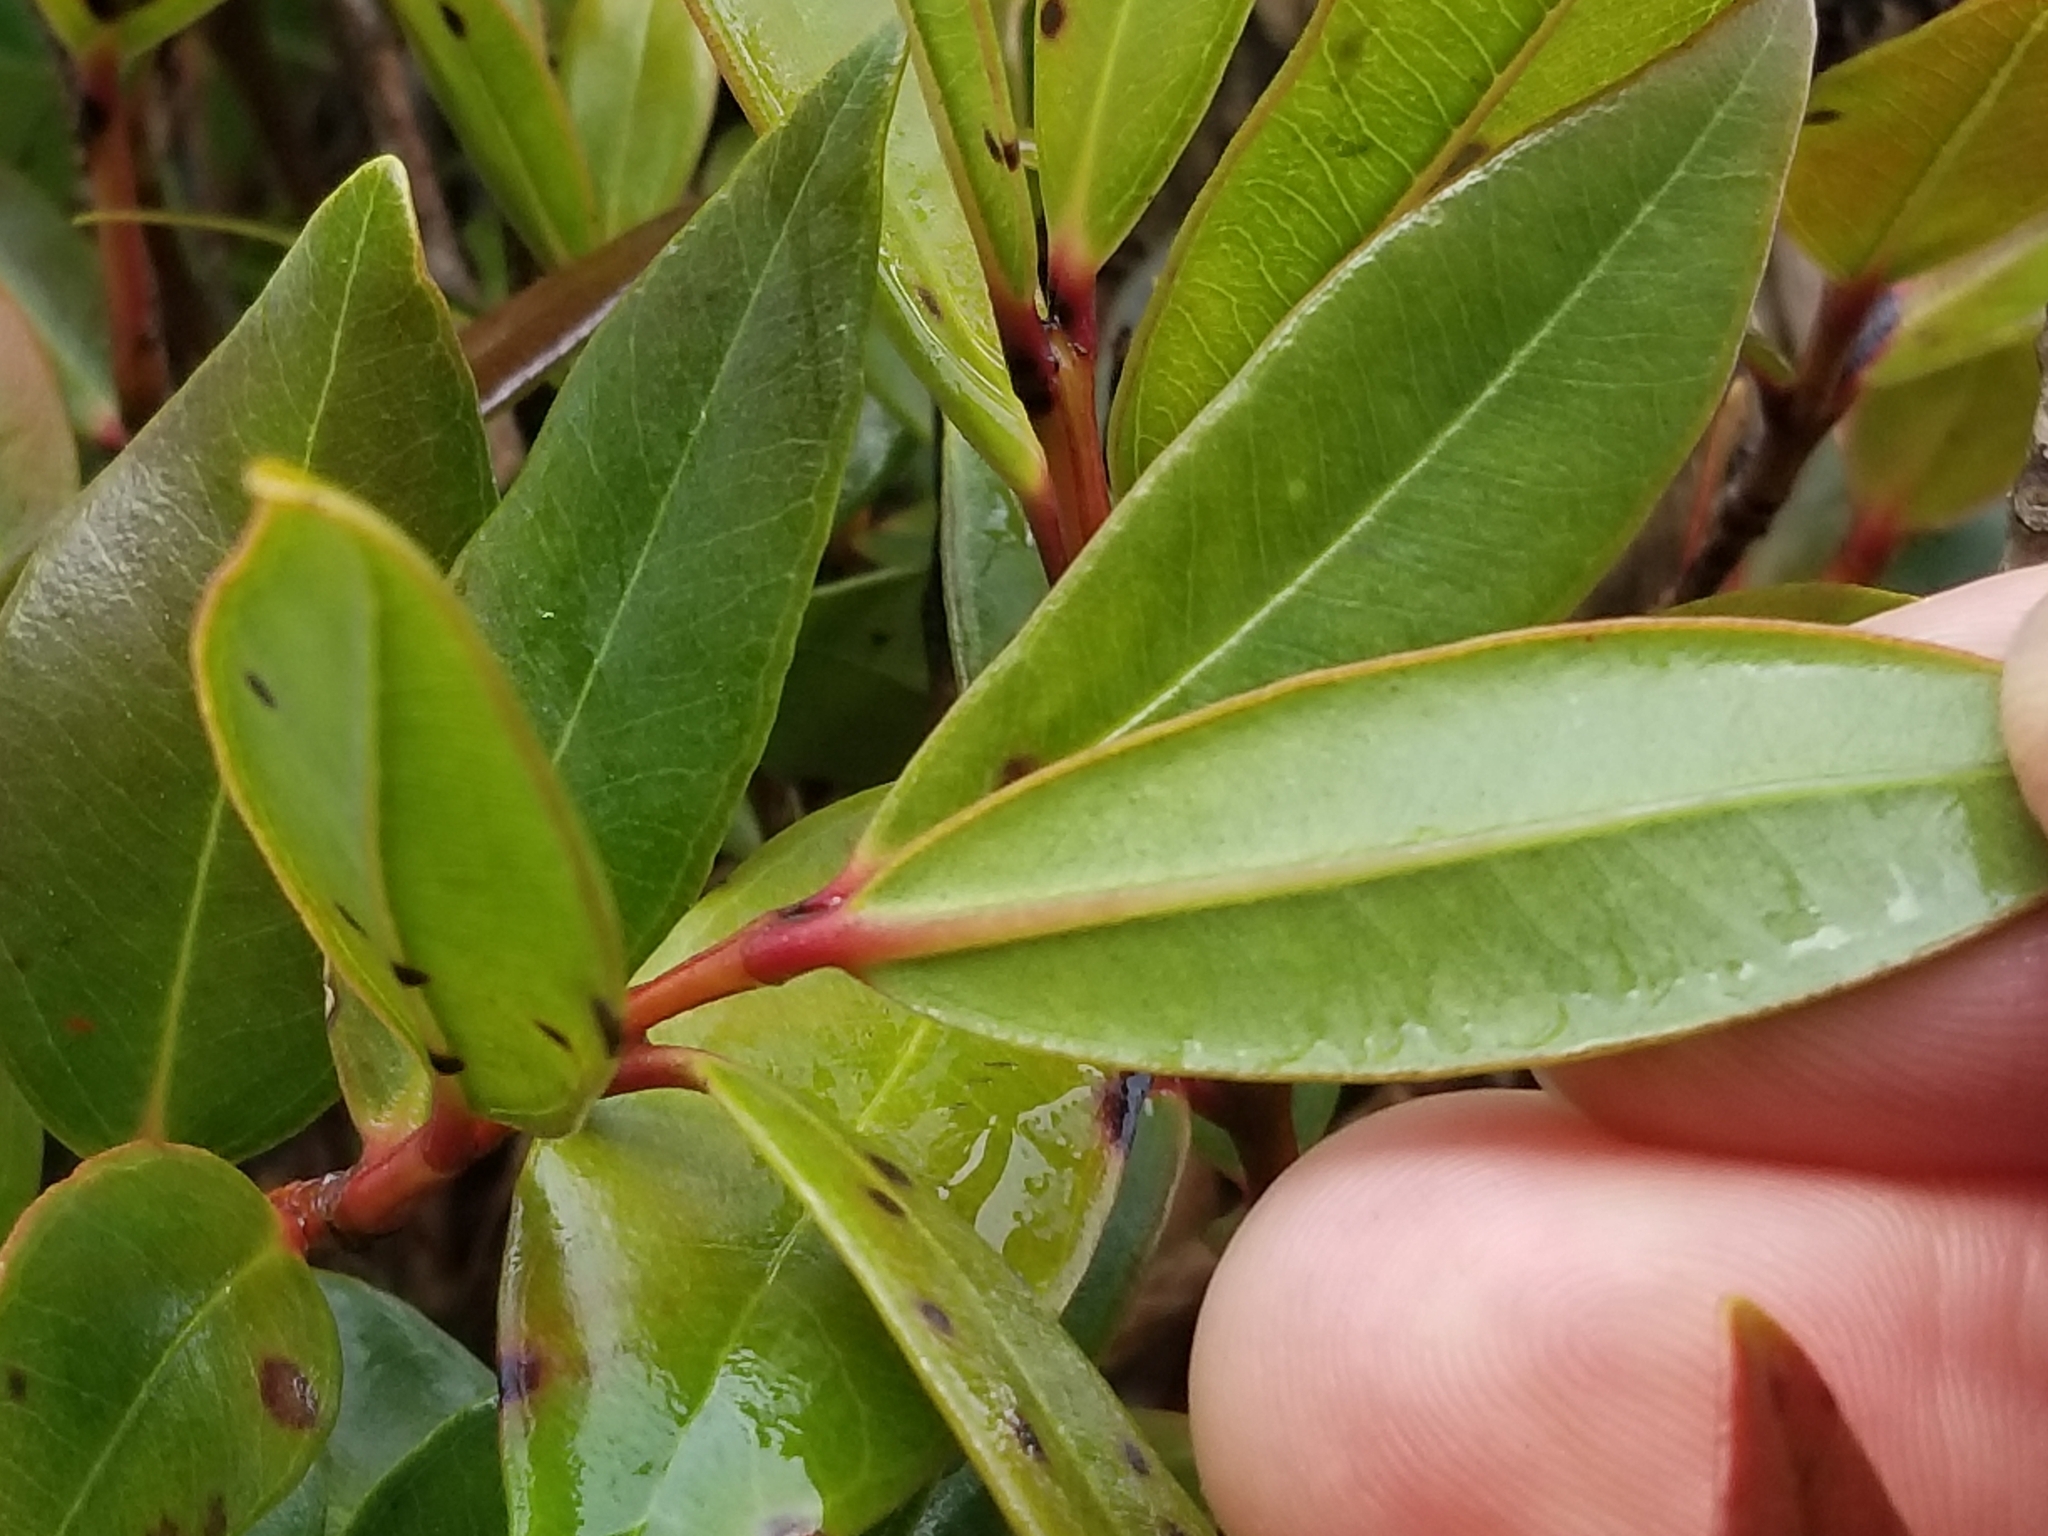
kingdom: Plantae
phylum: Tracheophyta
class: Magnoliopsida
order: Myrtales
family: Myrtaceae
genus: Metrosideros
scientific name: Metrosideros excelsa
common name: New zealand christmastree
